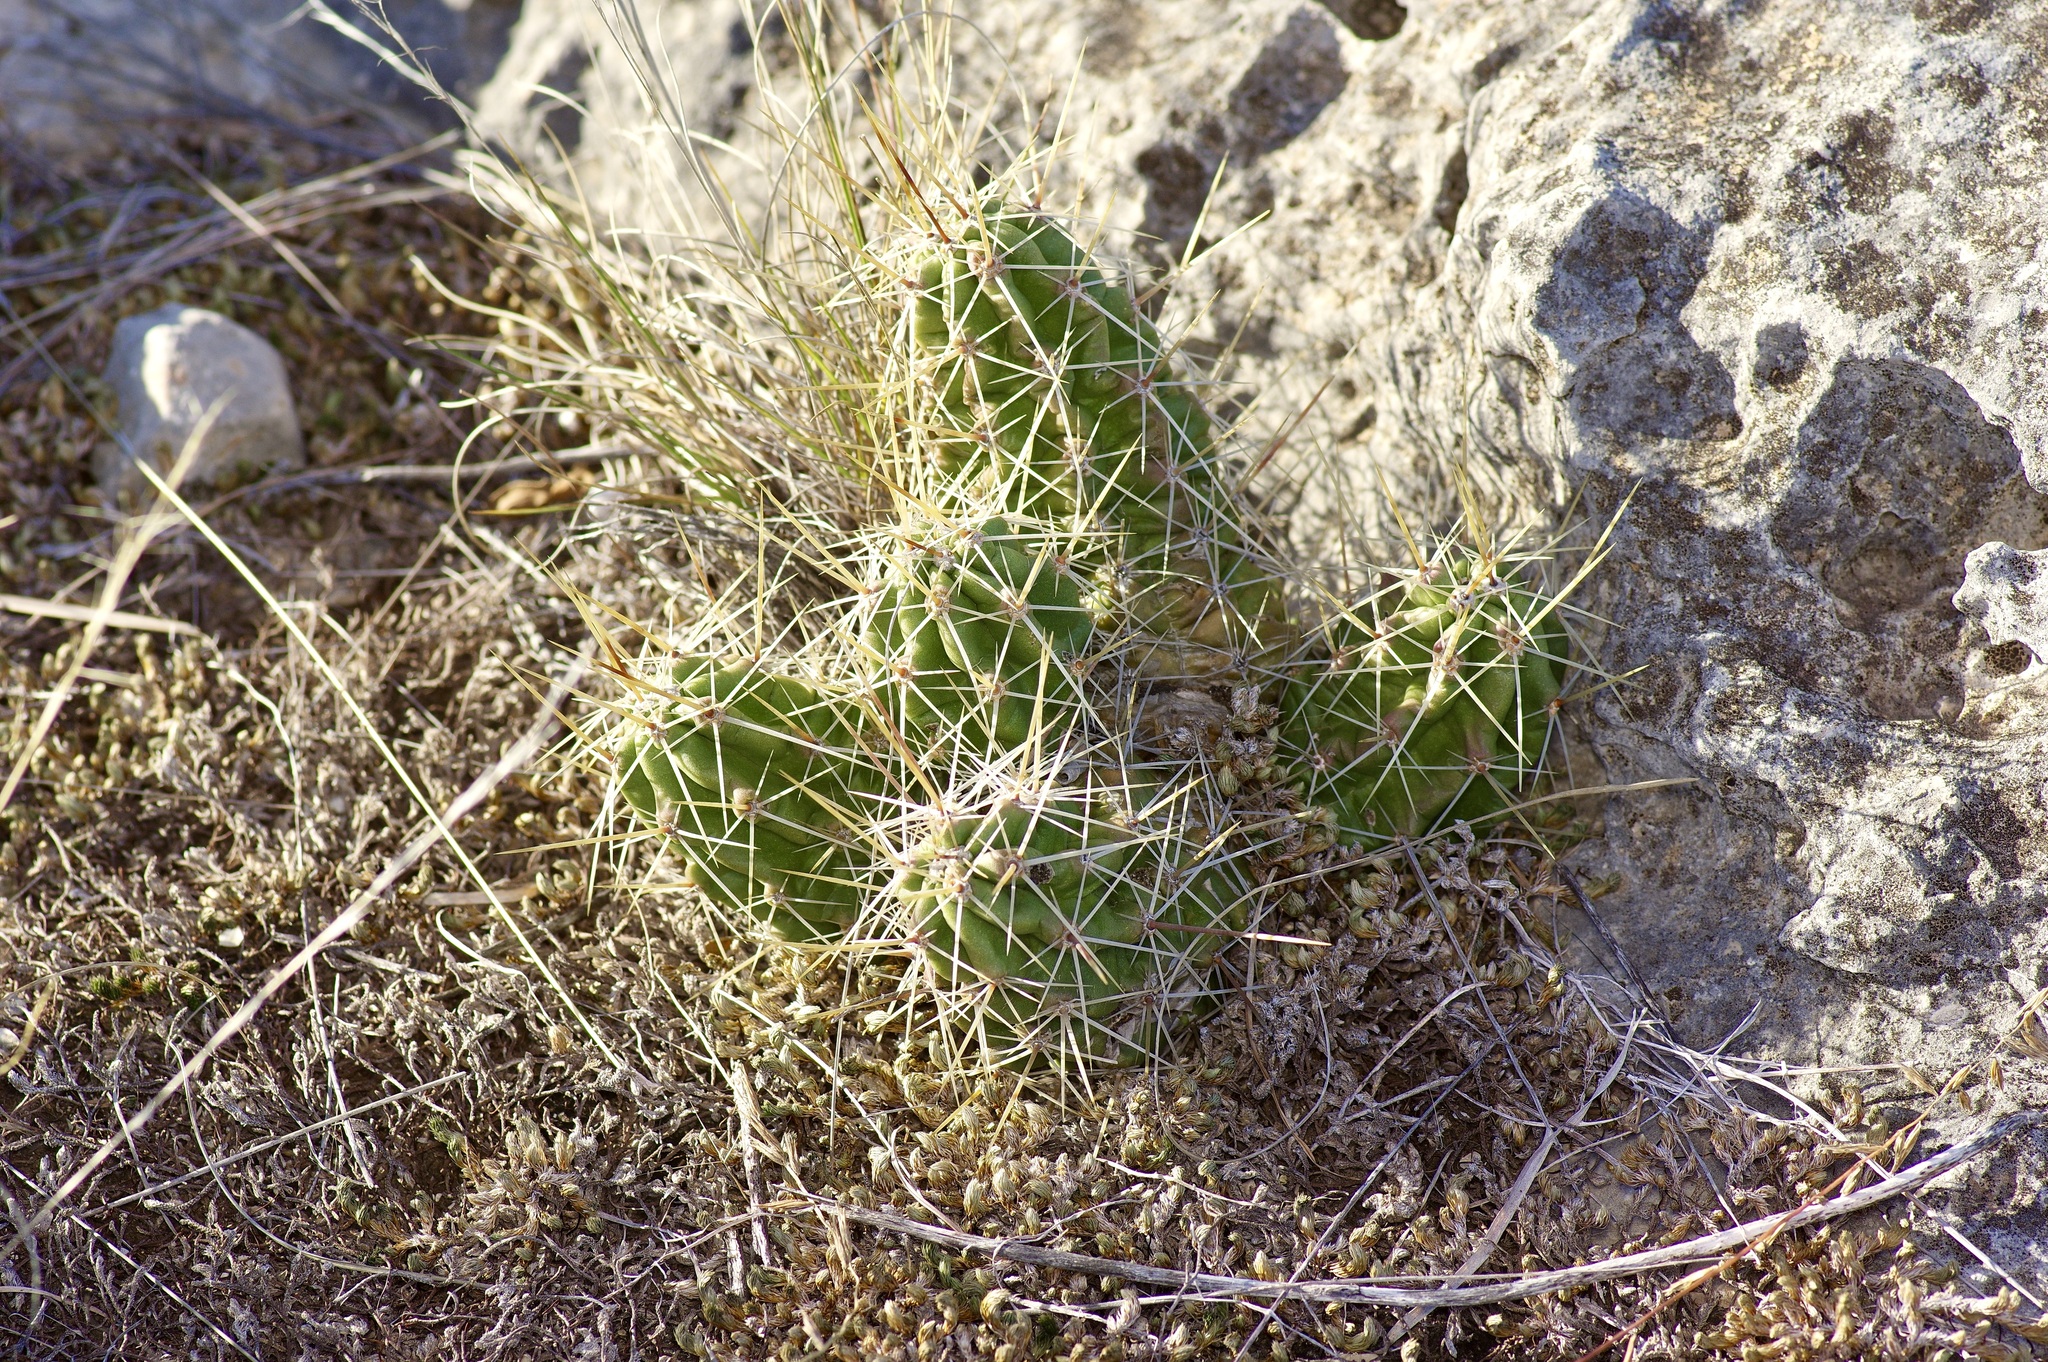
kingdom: Plantae
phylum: Tracheophyta
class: Magnoliopsida
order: Caryophyllales
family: Cactaceae
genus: Echinocereus
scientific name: Echinocereus enneacanthus
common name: Pitaya
